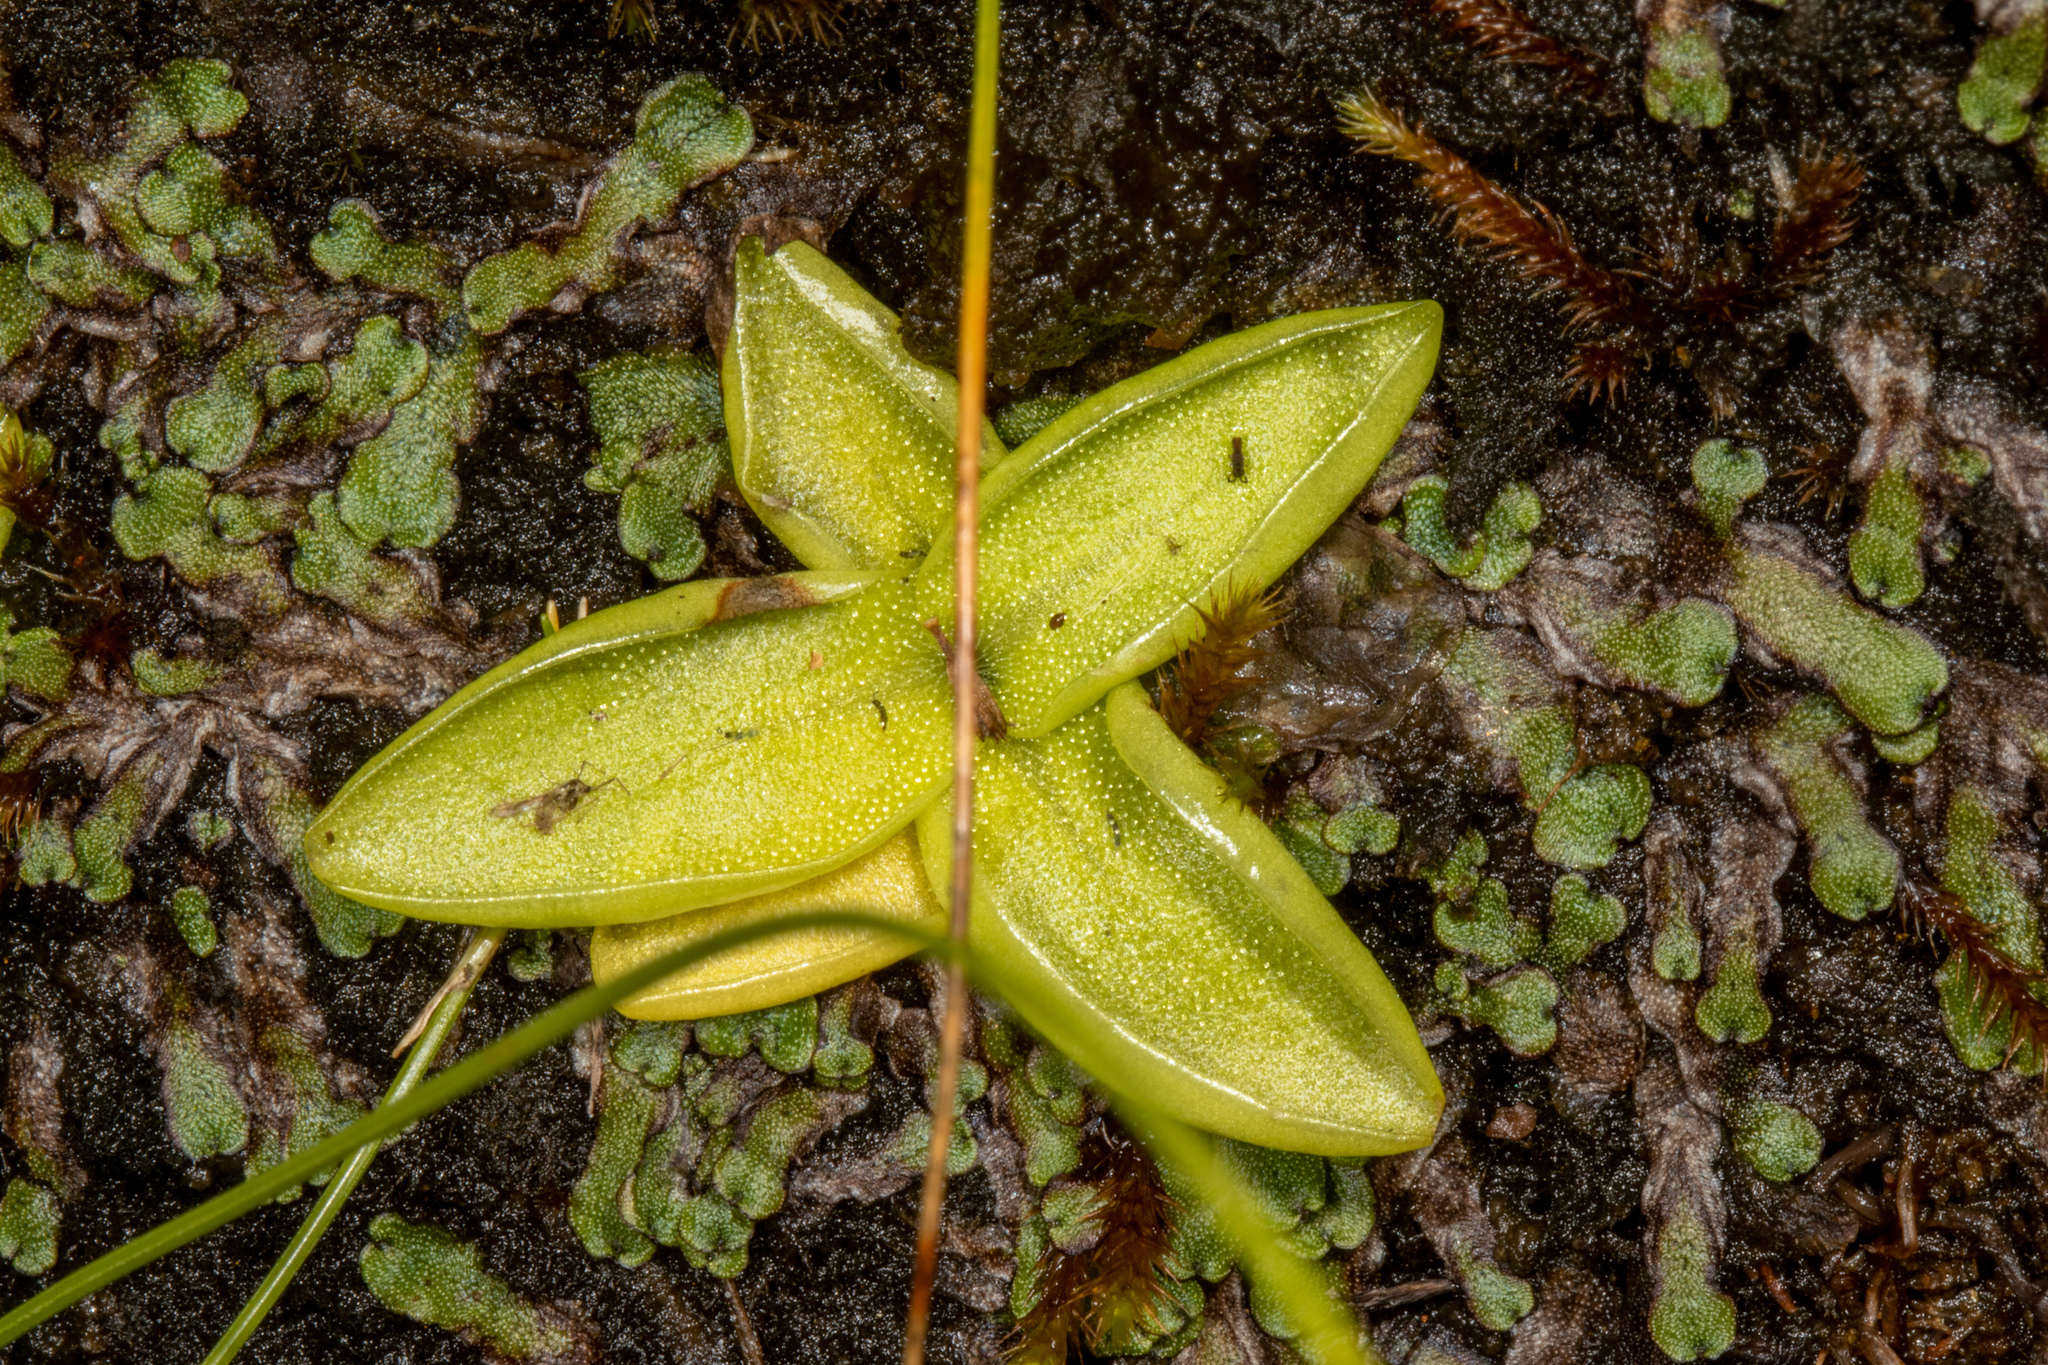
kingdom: Plantae
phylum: Tracheophyta
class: Magnoliopsida
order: Lamiales
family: Lentibulariaceae
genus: Pinguicula
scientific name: Pinguicula vulgaris
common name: Common butterwort
